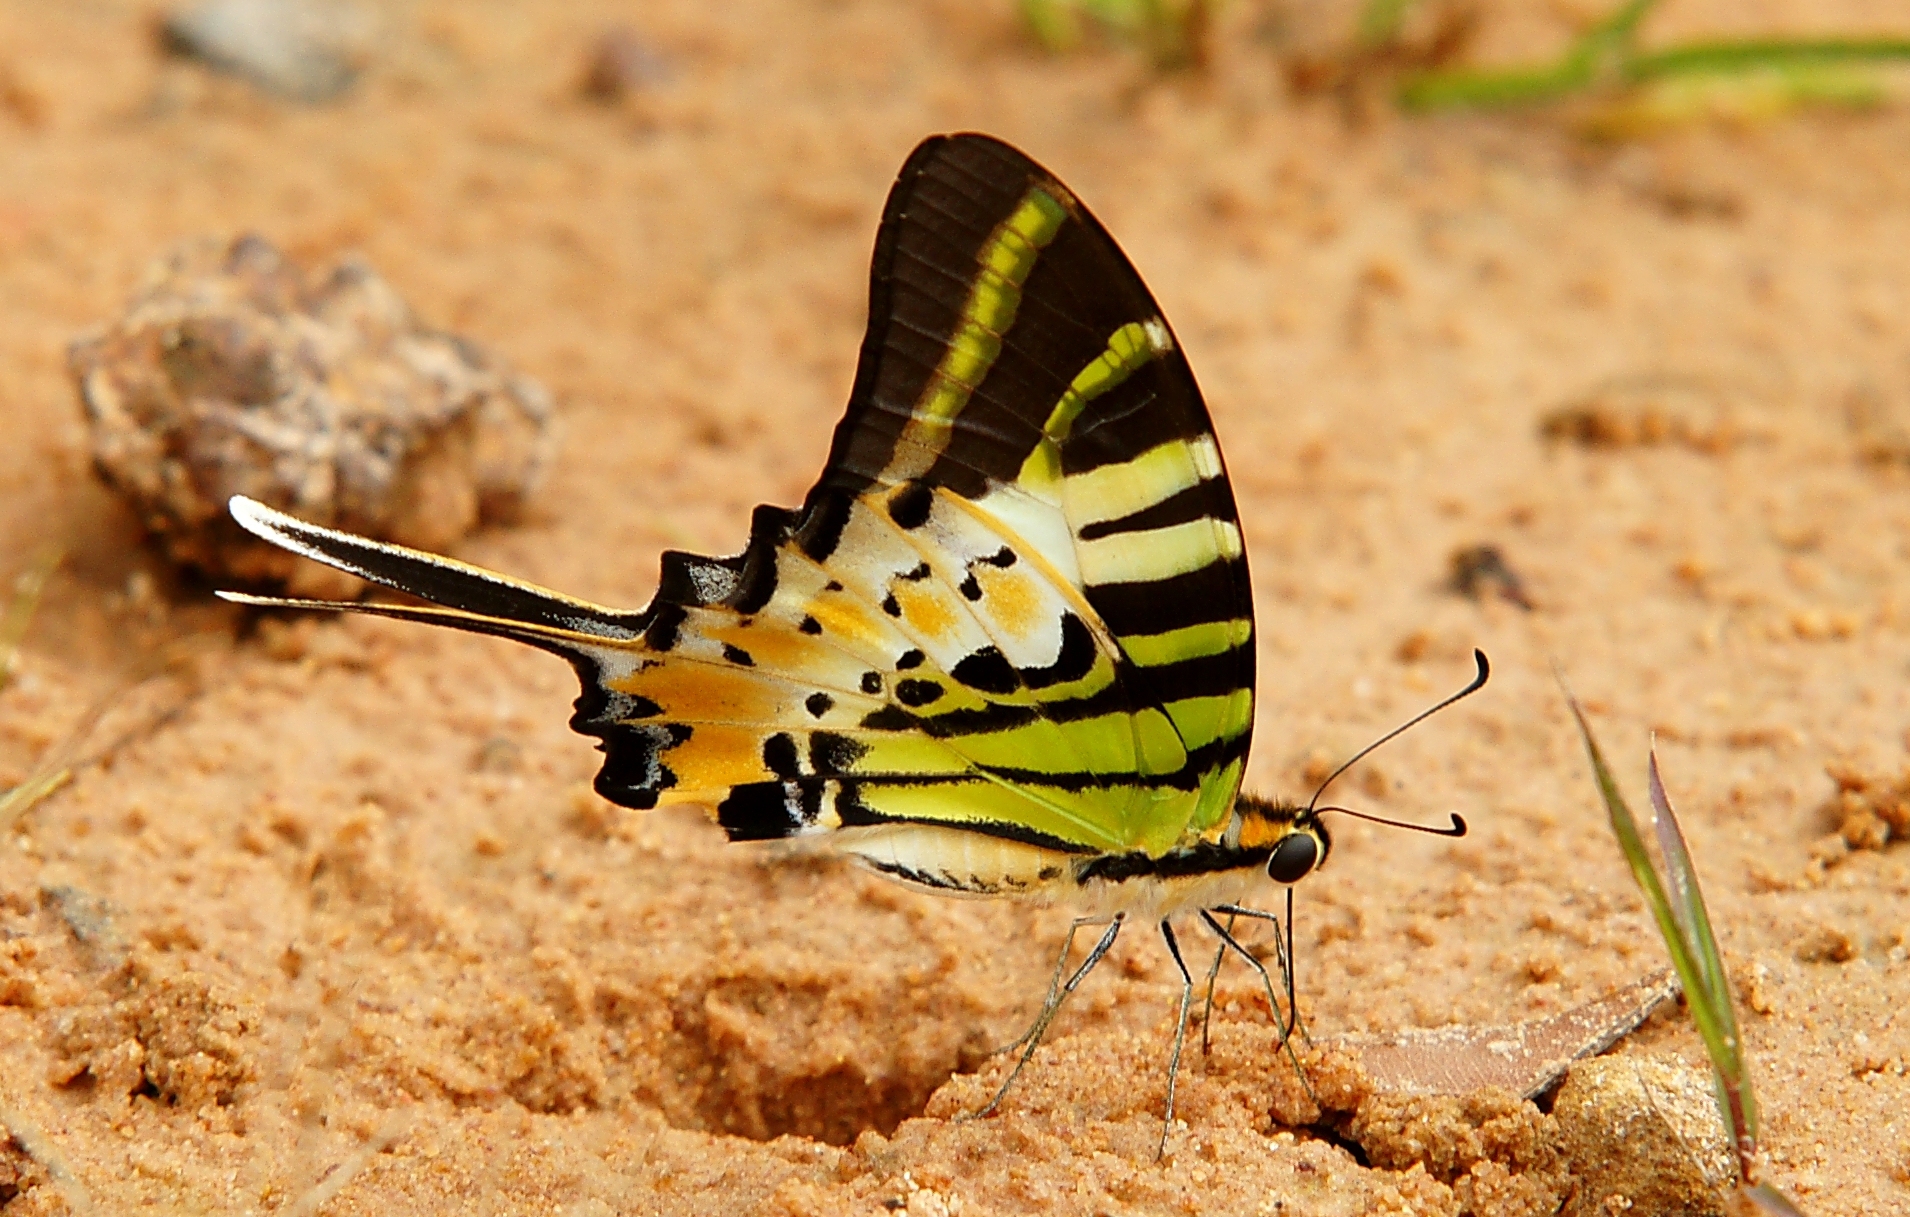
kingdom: Animalia
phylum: Arthropoda
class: Insecta
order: Lepidoptera
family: Papilionidae
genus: Graphium
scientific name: Graphium antiphates
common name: Fivebar swordtail
